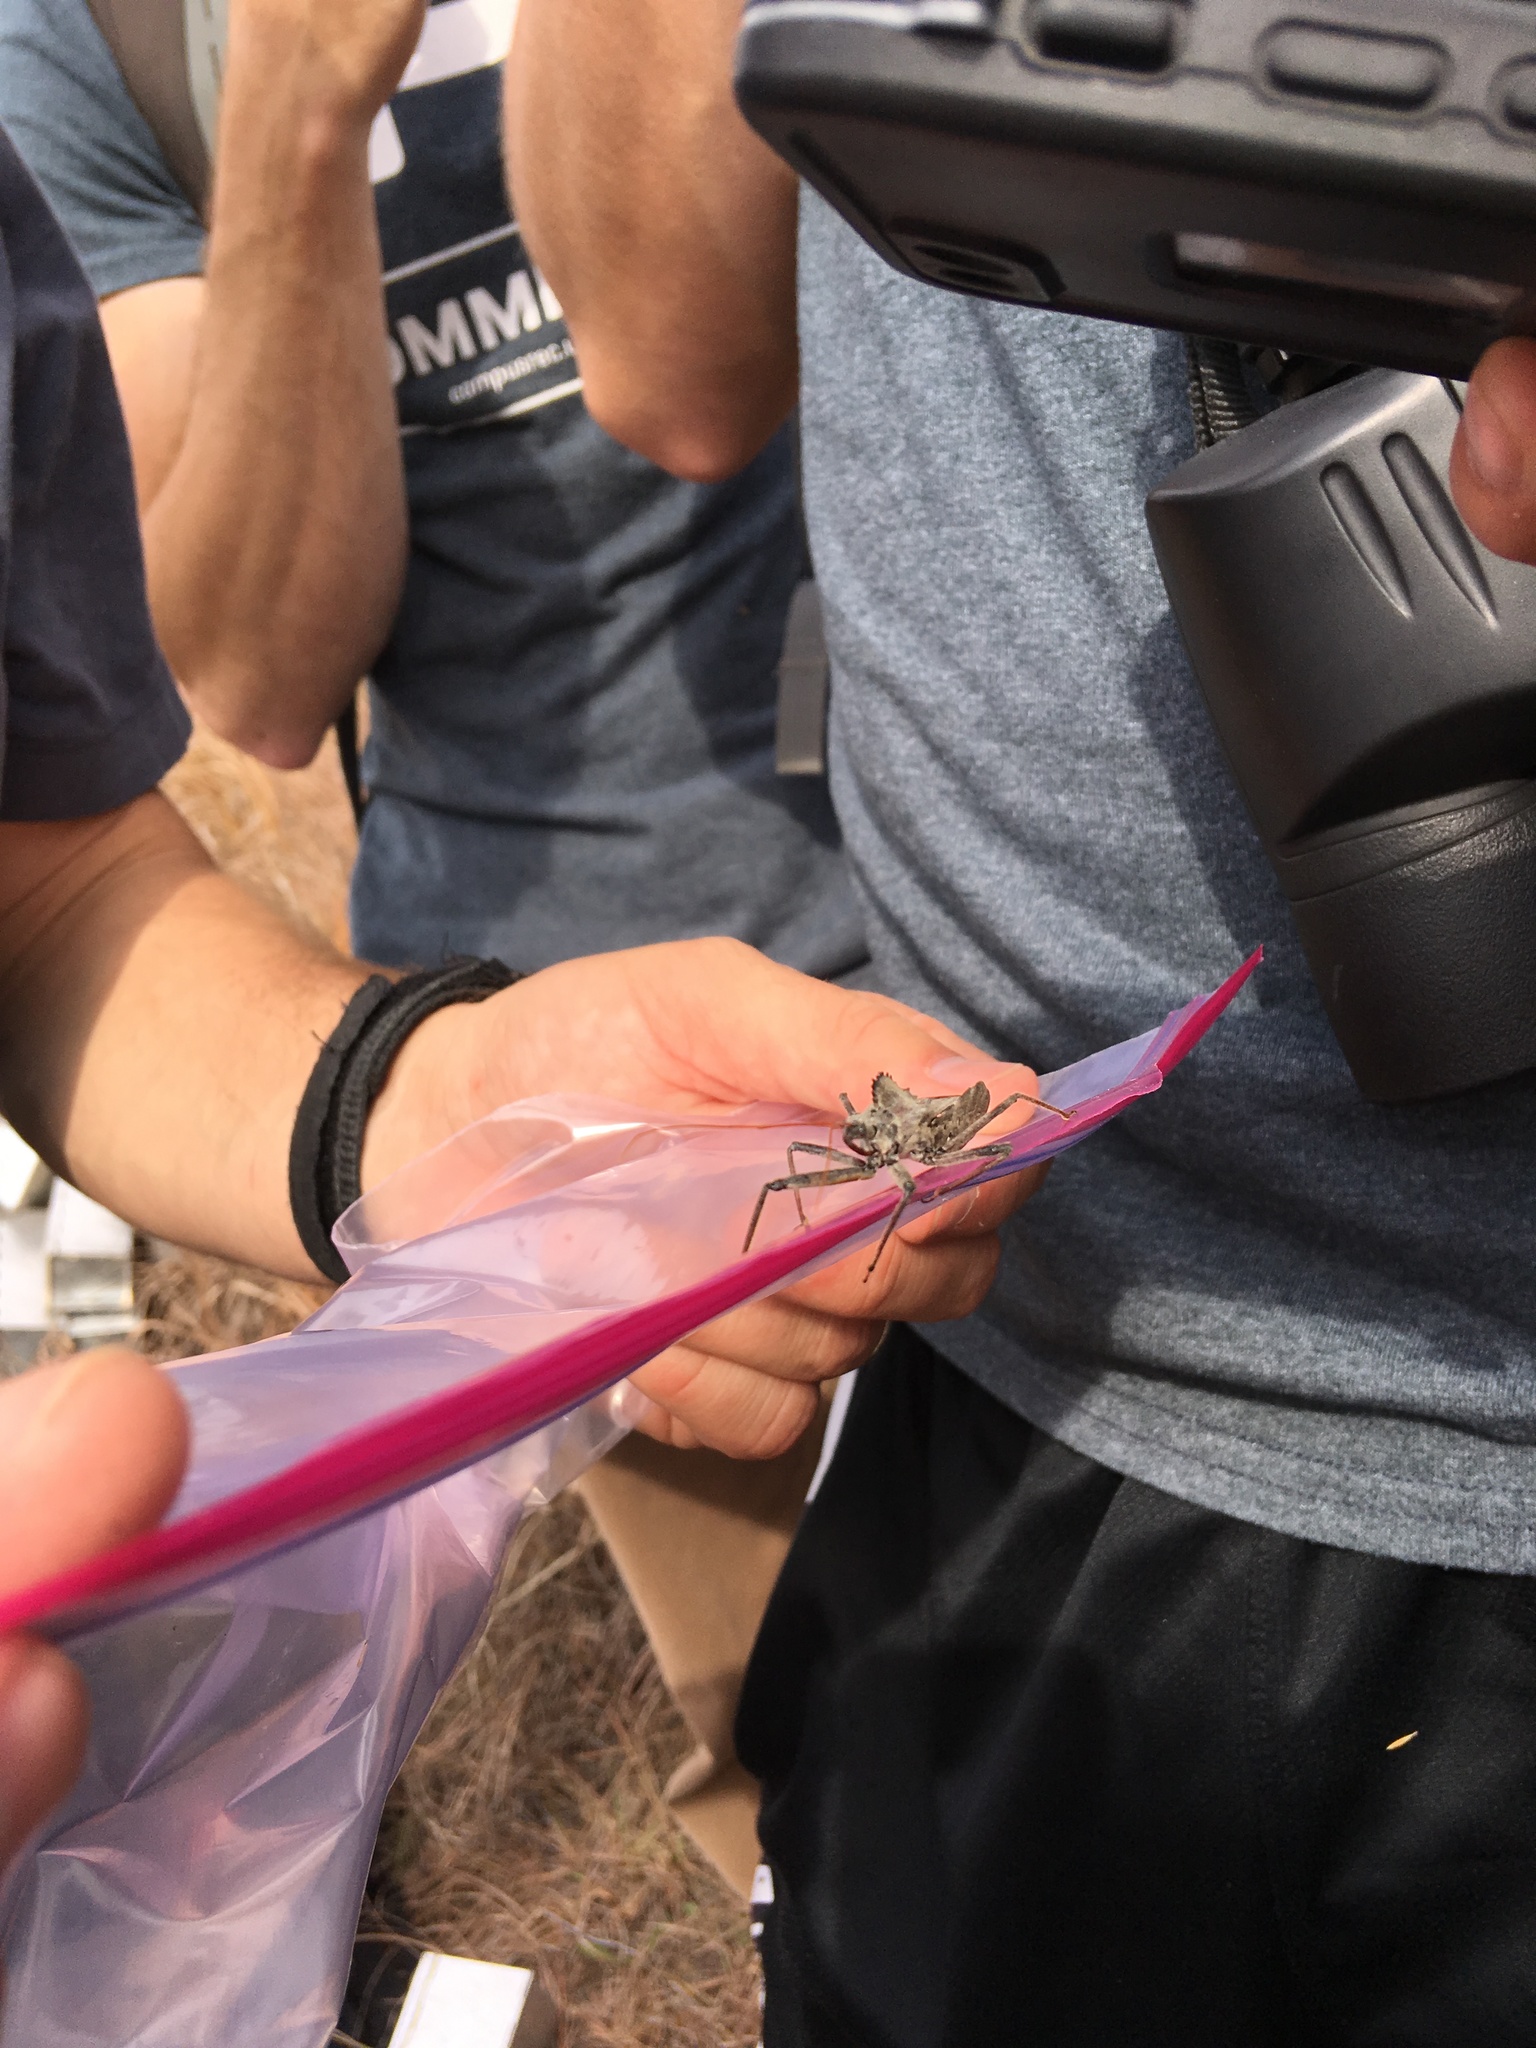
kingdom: Animalia
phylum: Arthropoda
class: Insecta
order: Hemiptera
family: Reduviidae
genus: Arilus
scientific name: Arilus cristatus
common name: North american wheel bug
